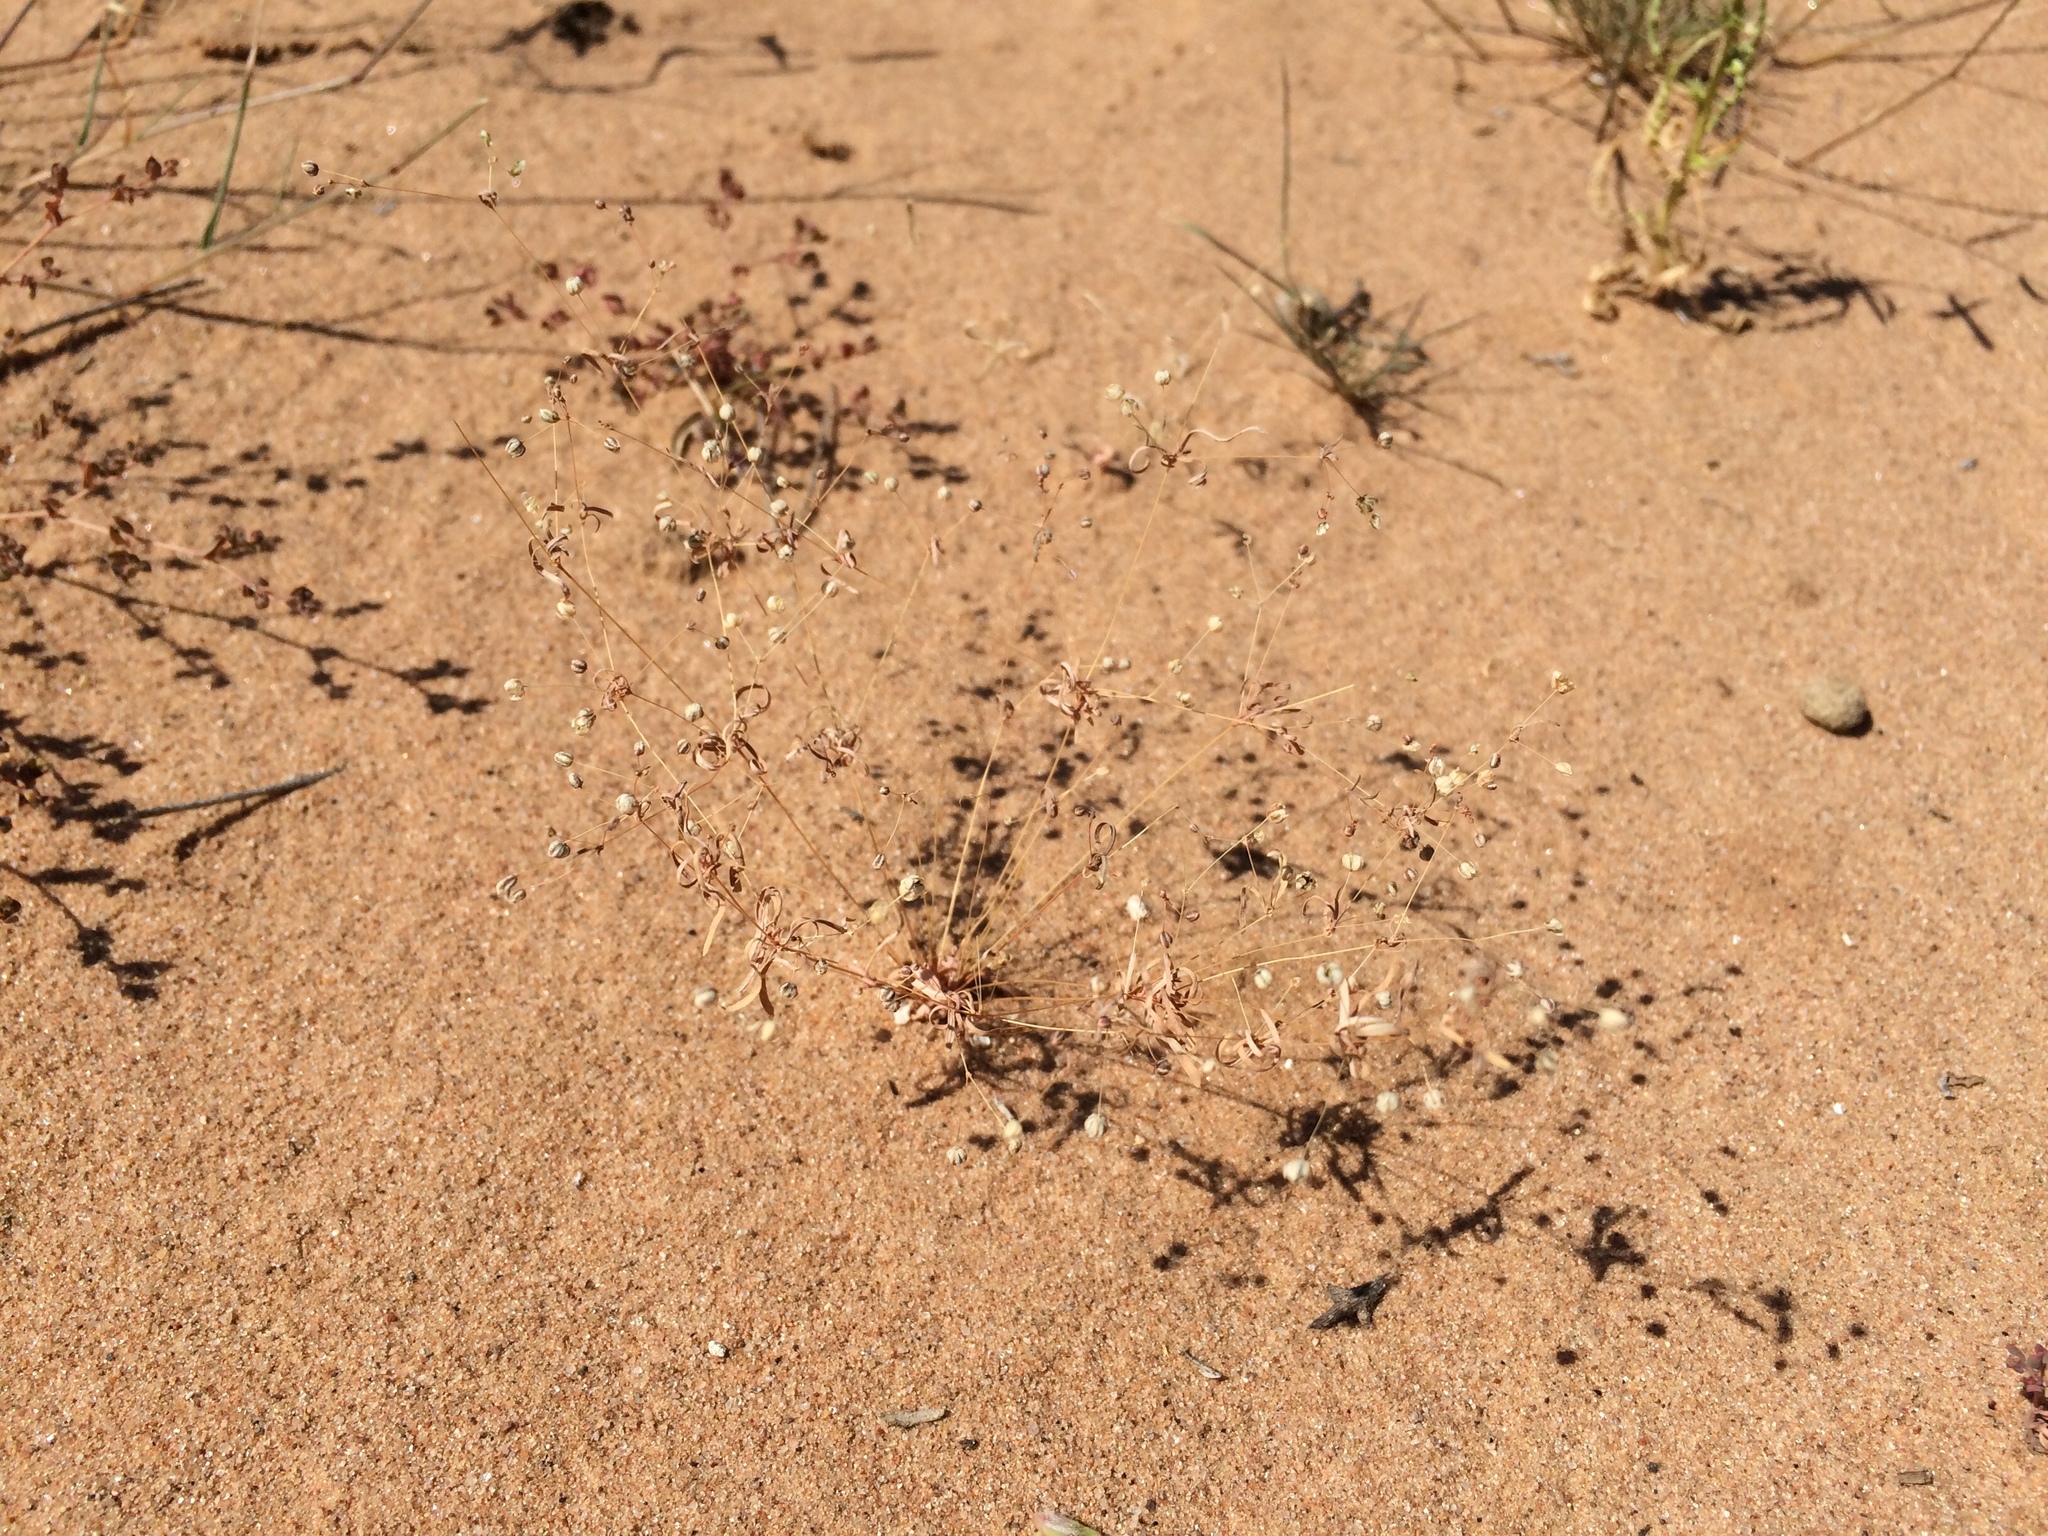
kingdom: Plantae
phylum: Tracheophyta
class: Magnoliopsida
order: Caryophyllales
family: Molluginaceae
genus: Hypertelis
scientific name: Hypertelis umbellata
